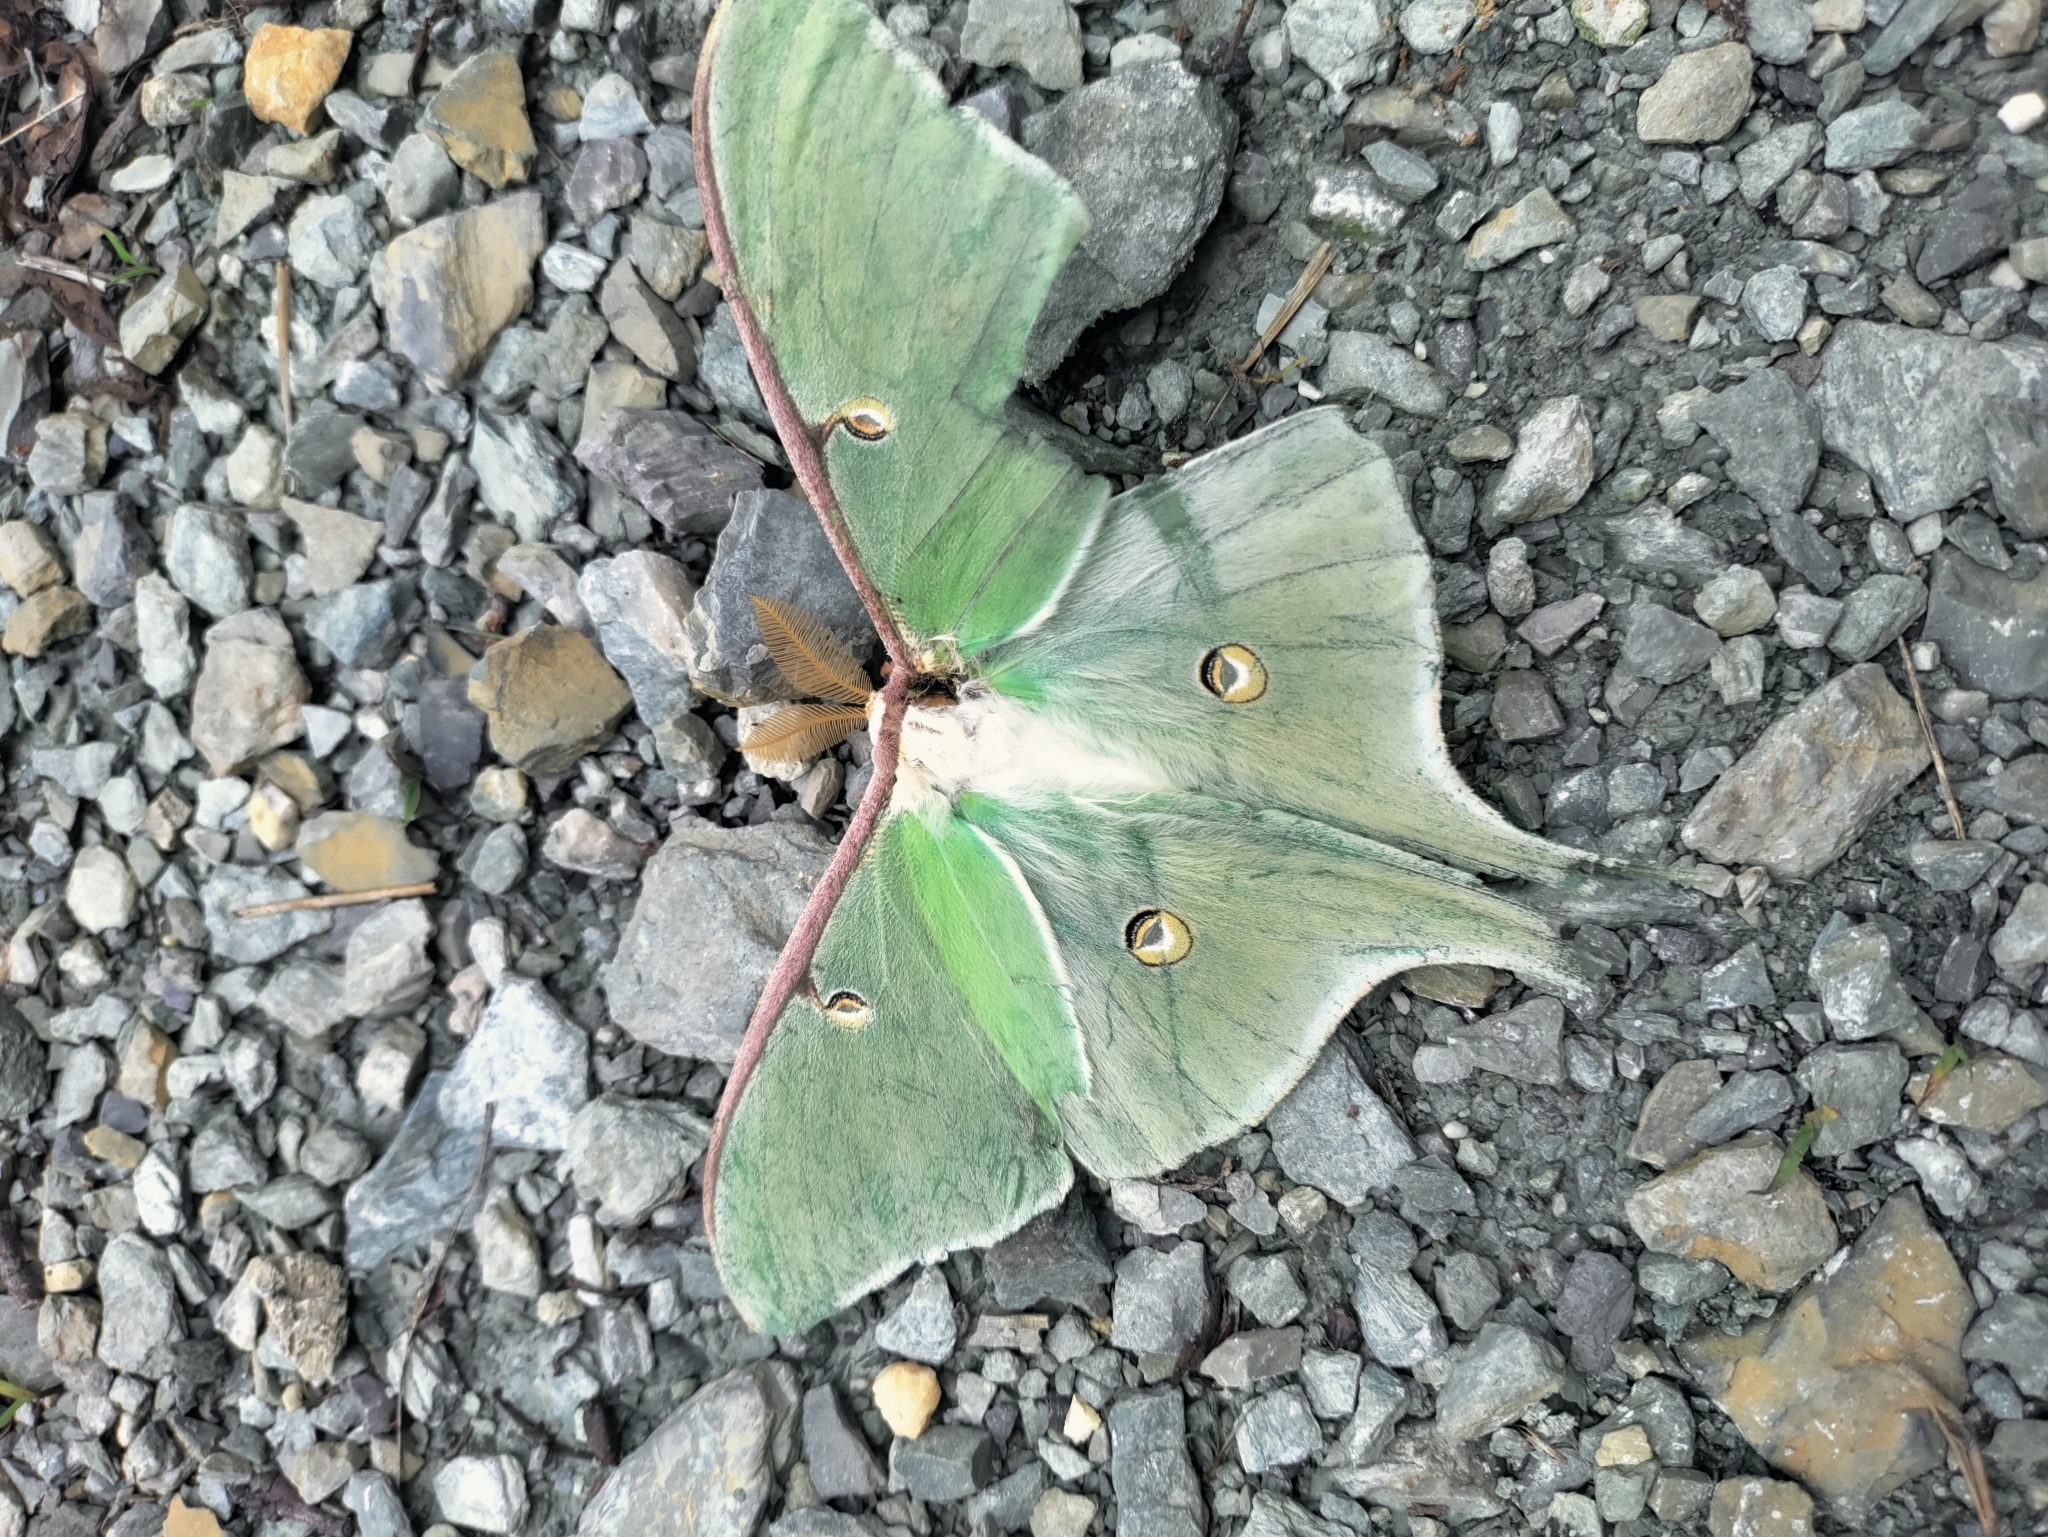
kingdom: Animalia
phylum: Arthropoda
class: Insecta
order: Lepidoptera
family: Saturniidae
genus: Actias
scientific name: Actias luna
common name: Luna moth
